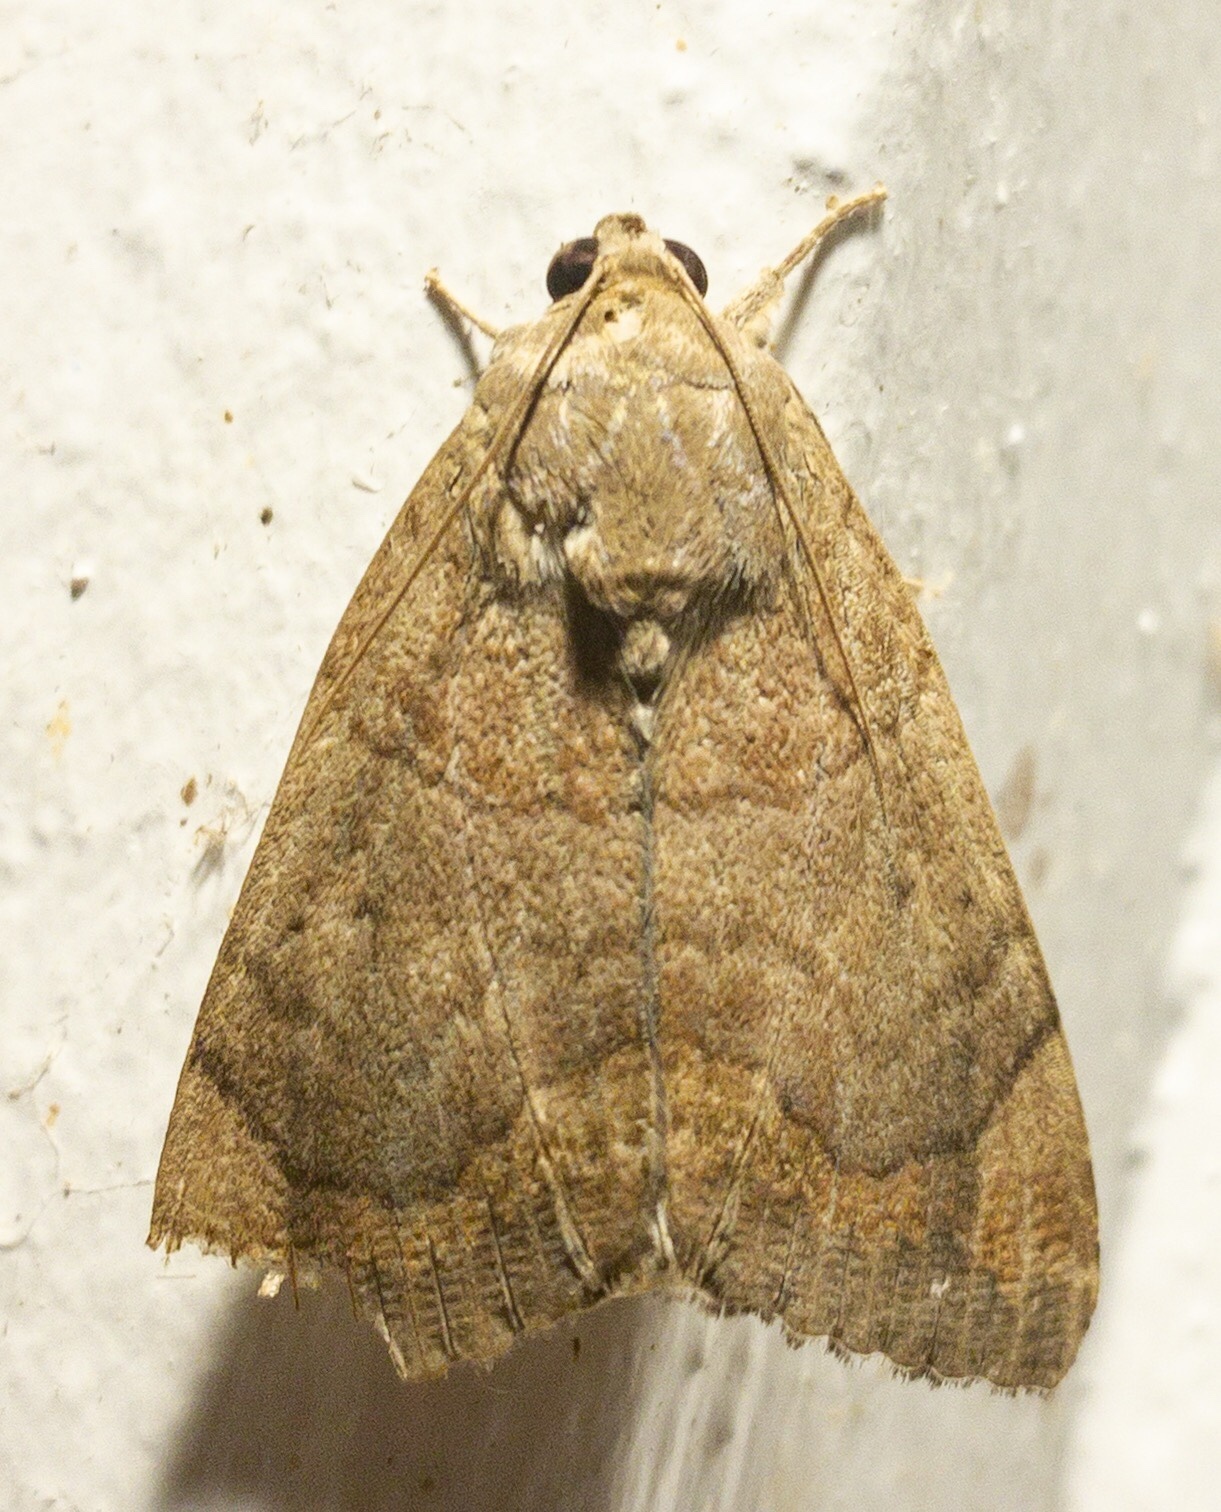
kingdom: Animalia
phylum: Arthropoda
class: Insecta
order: Lepidoptera
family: Erebidae
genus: Achaea
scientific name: Achaea janata
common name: Croton caterpillar
